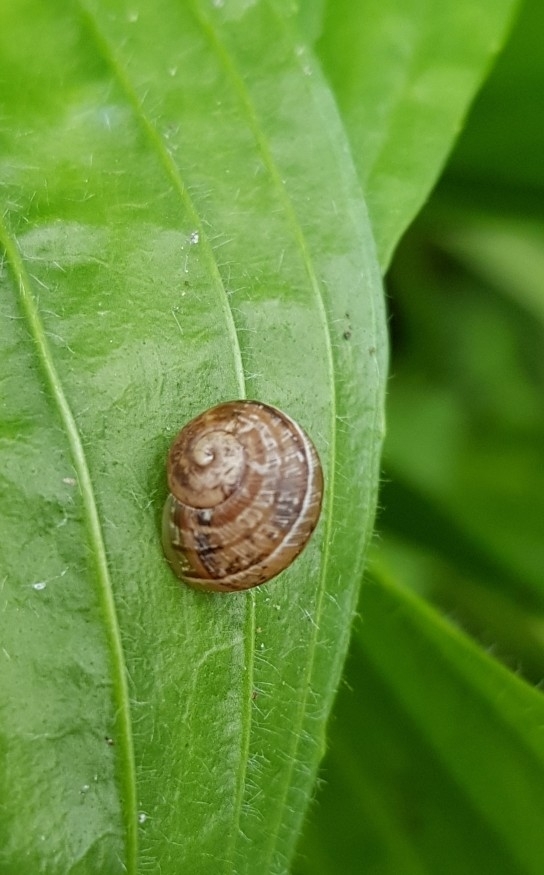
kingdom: Animalia
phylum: Mollusca
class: Gastropoda
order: Stylommatophora
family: Helicidae
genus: Cornu
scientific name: Cornu aspersum
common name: Brown garden snail
